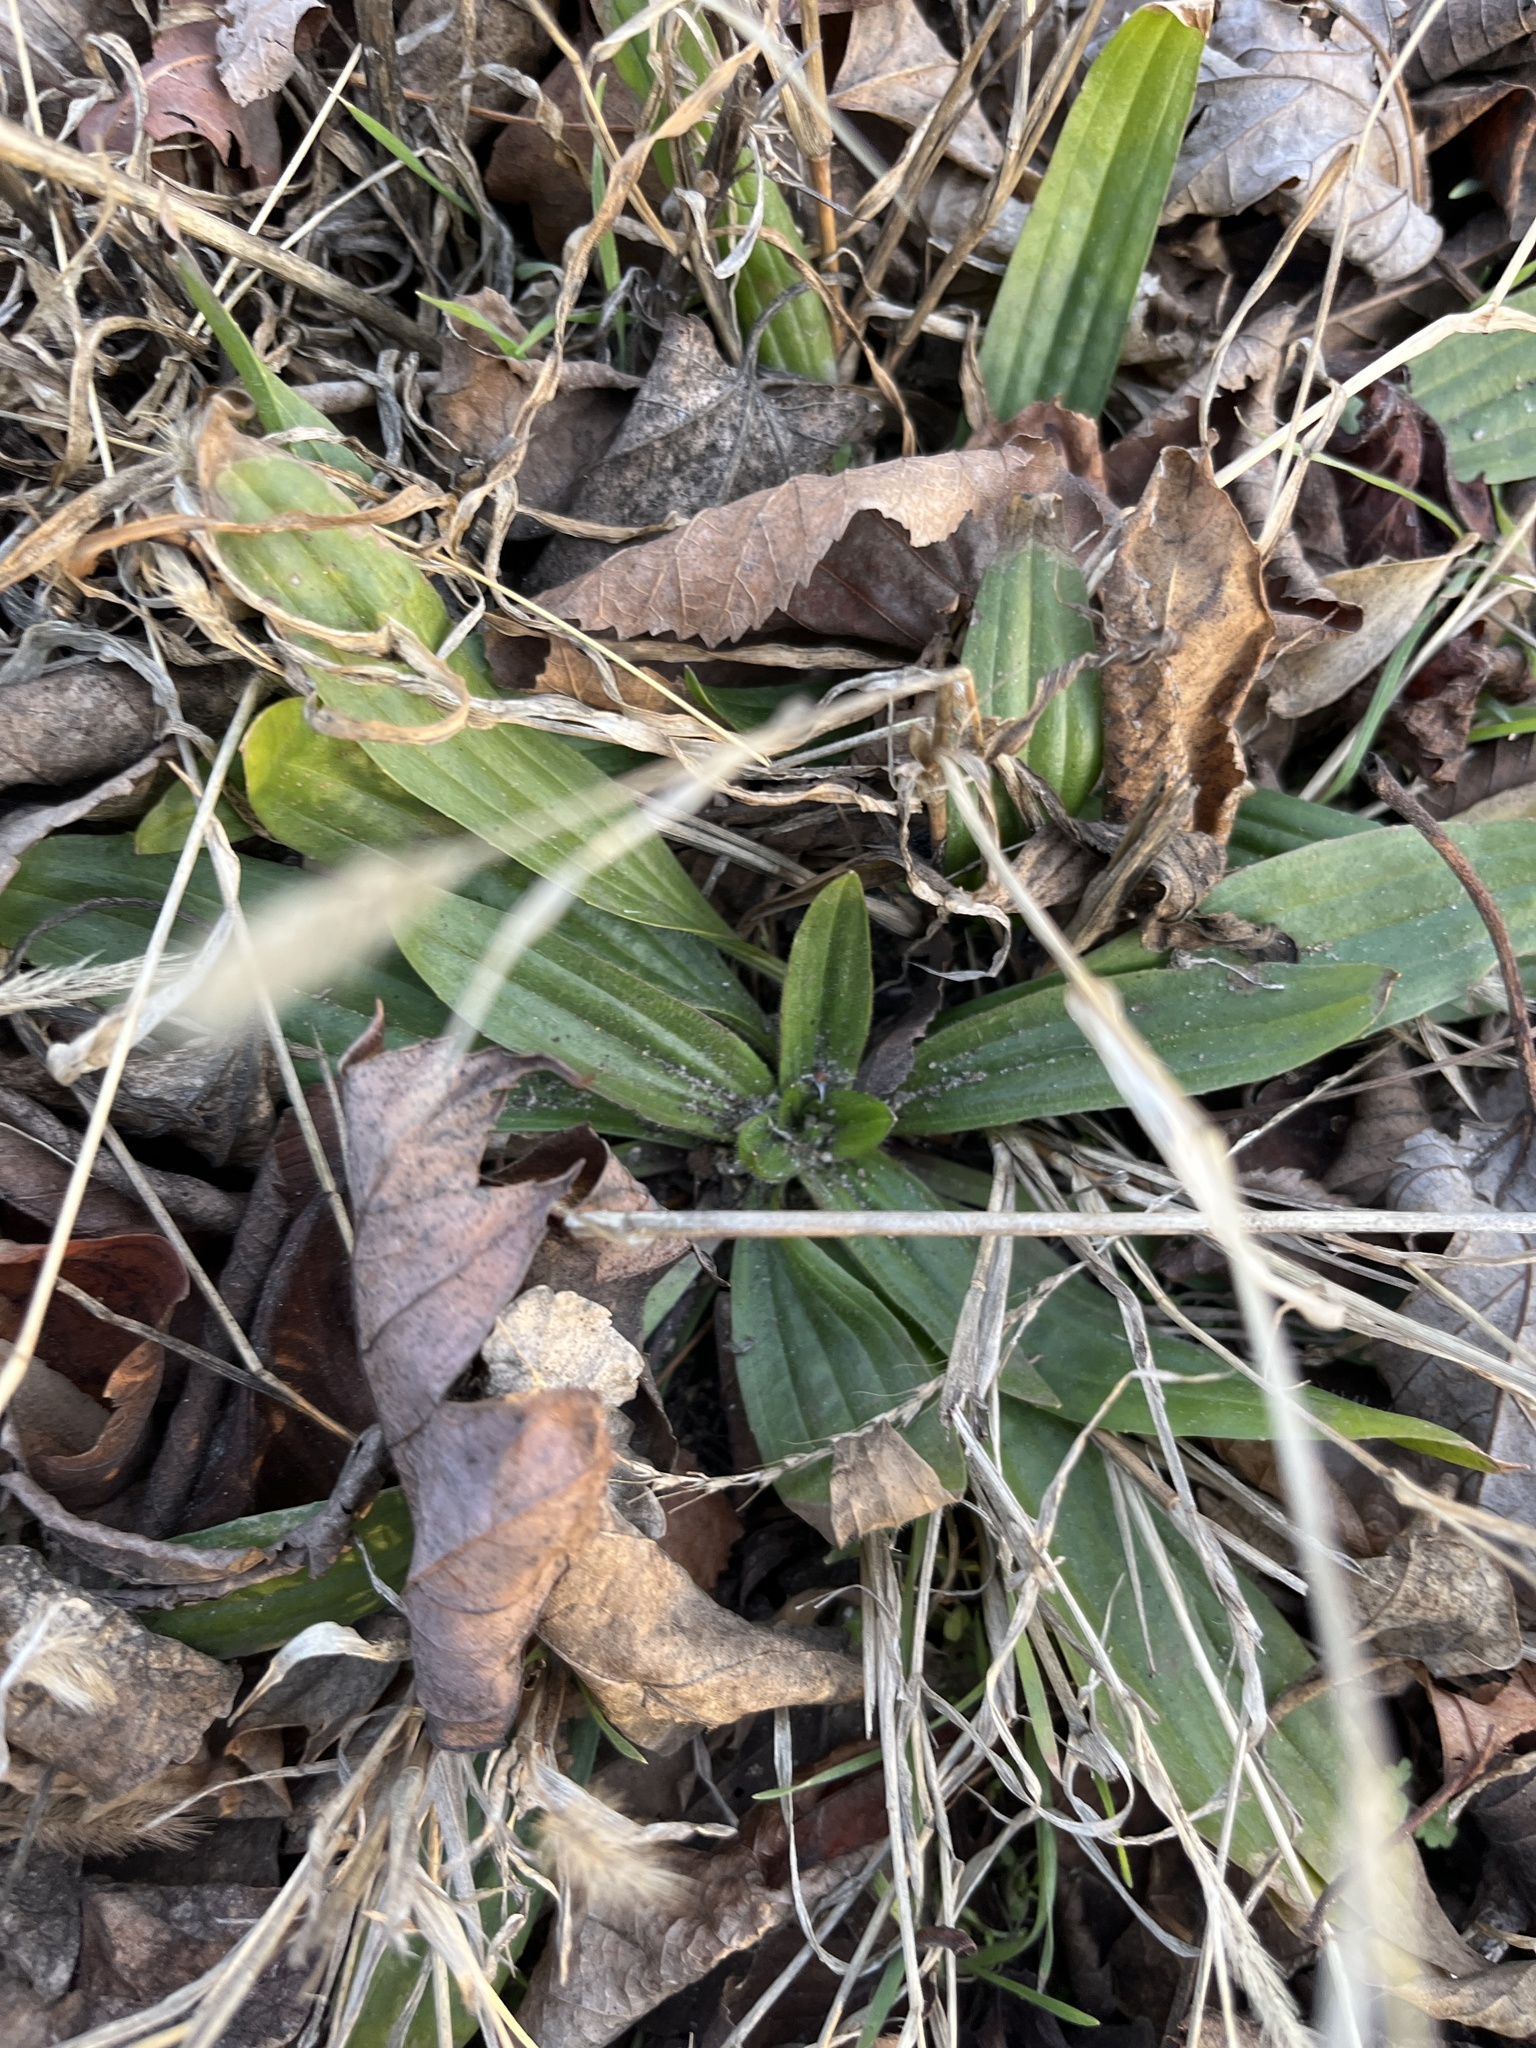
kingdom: Plantae
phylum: Tracheophyta
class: Magnoliopsida
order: Lamiales
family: Plantaginaceae
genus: Plantago
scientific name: Plantago lanceolata
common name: Ribwort plantain
